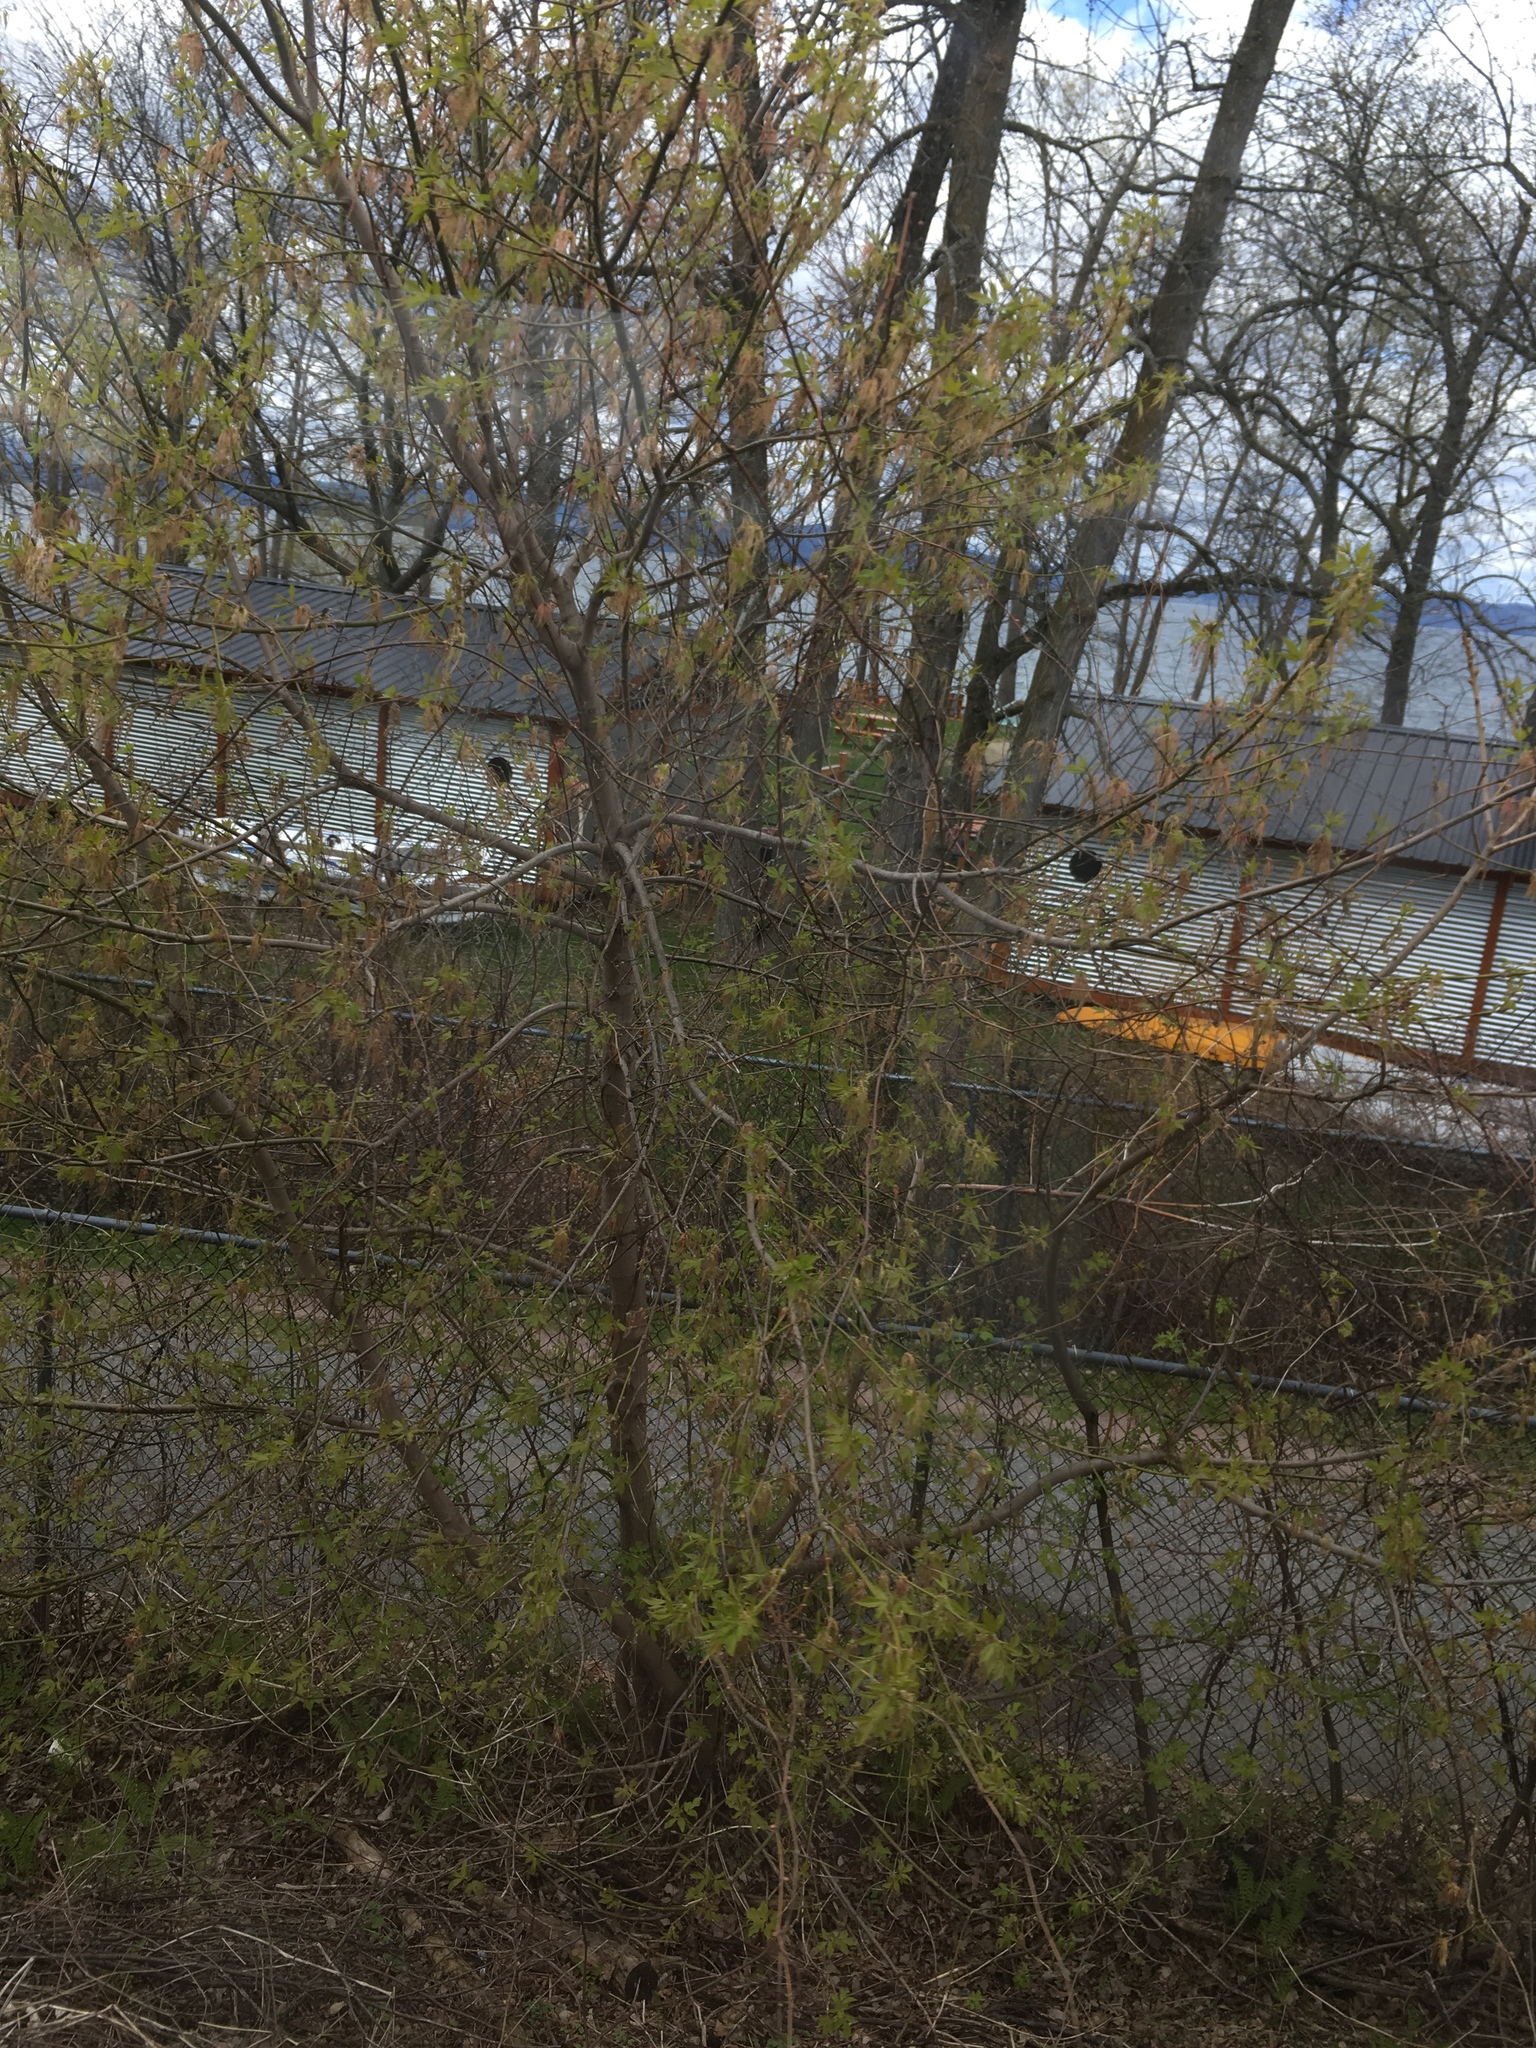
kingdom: Plantae
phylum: Tracheophyta
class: Magnoliopsida
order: Sapindales
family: Sapindaceae
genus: Acer
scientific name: Acer negundo
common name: Ashleaf maple
